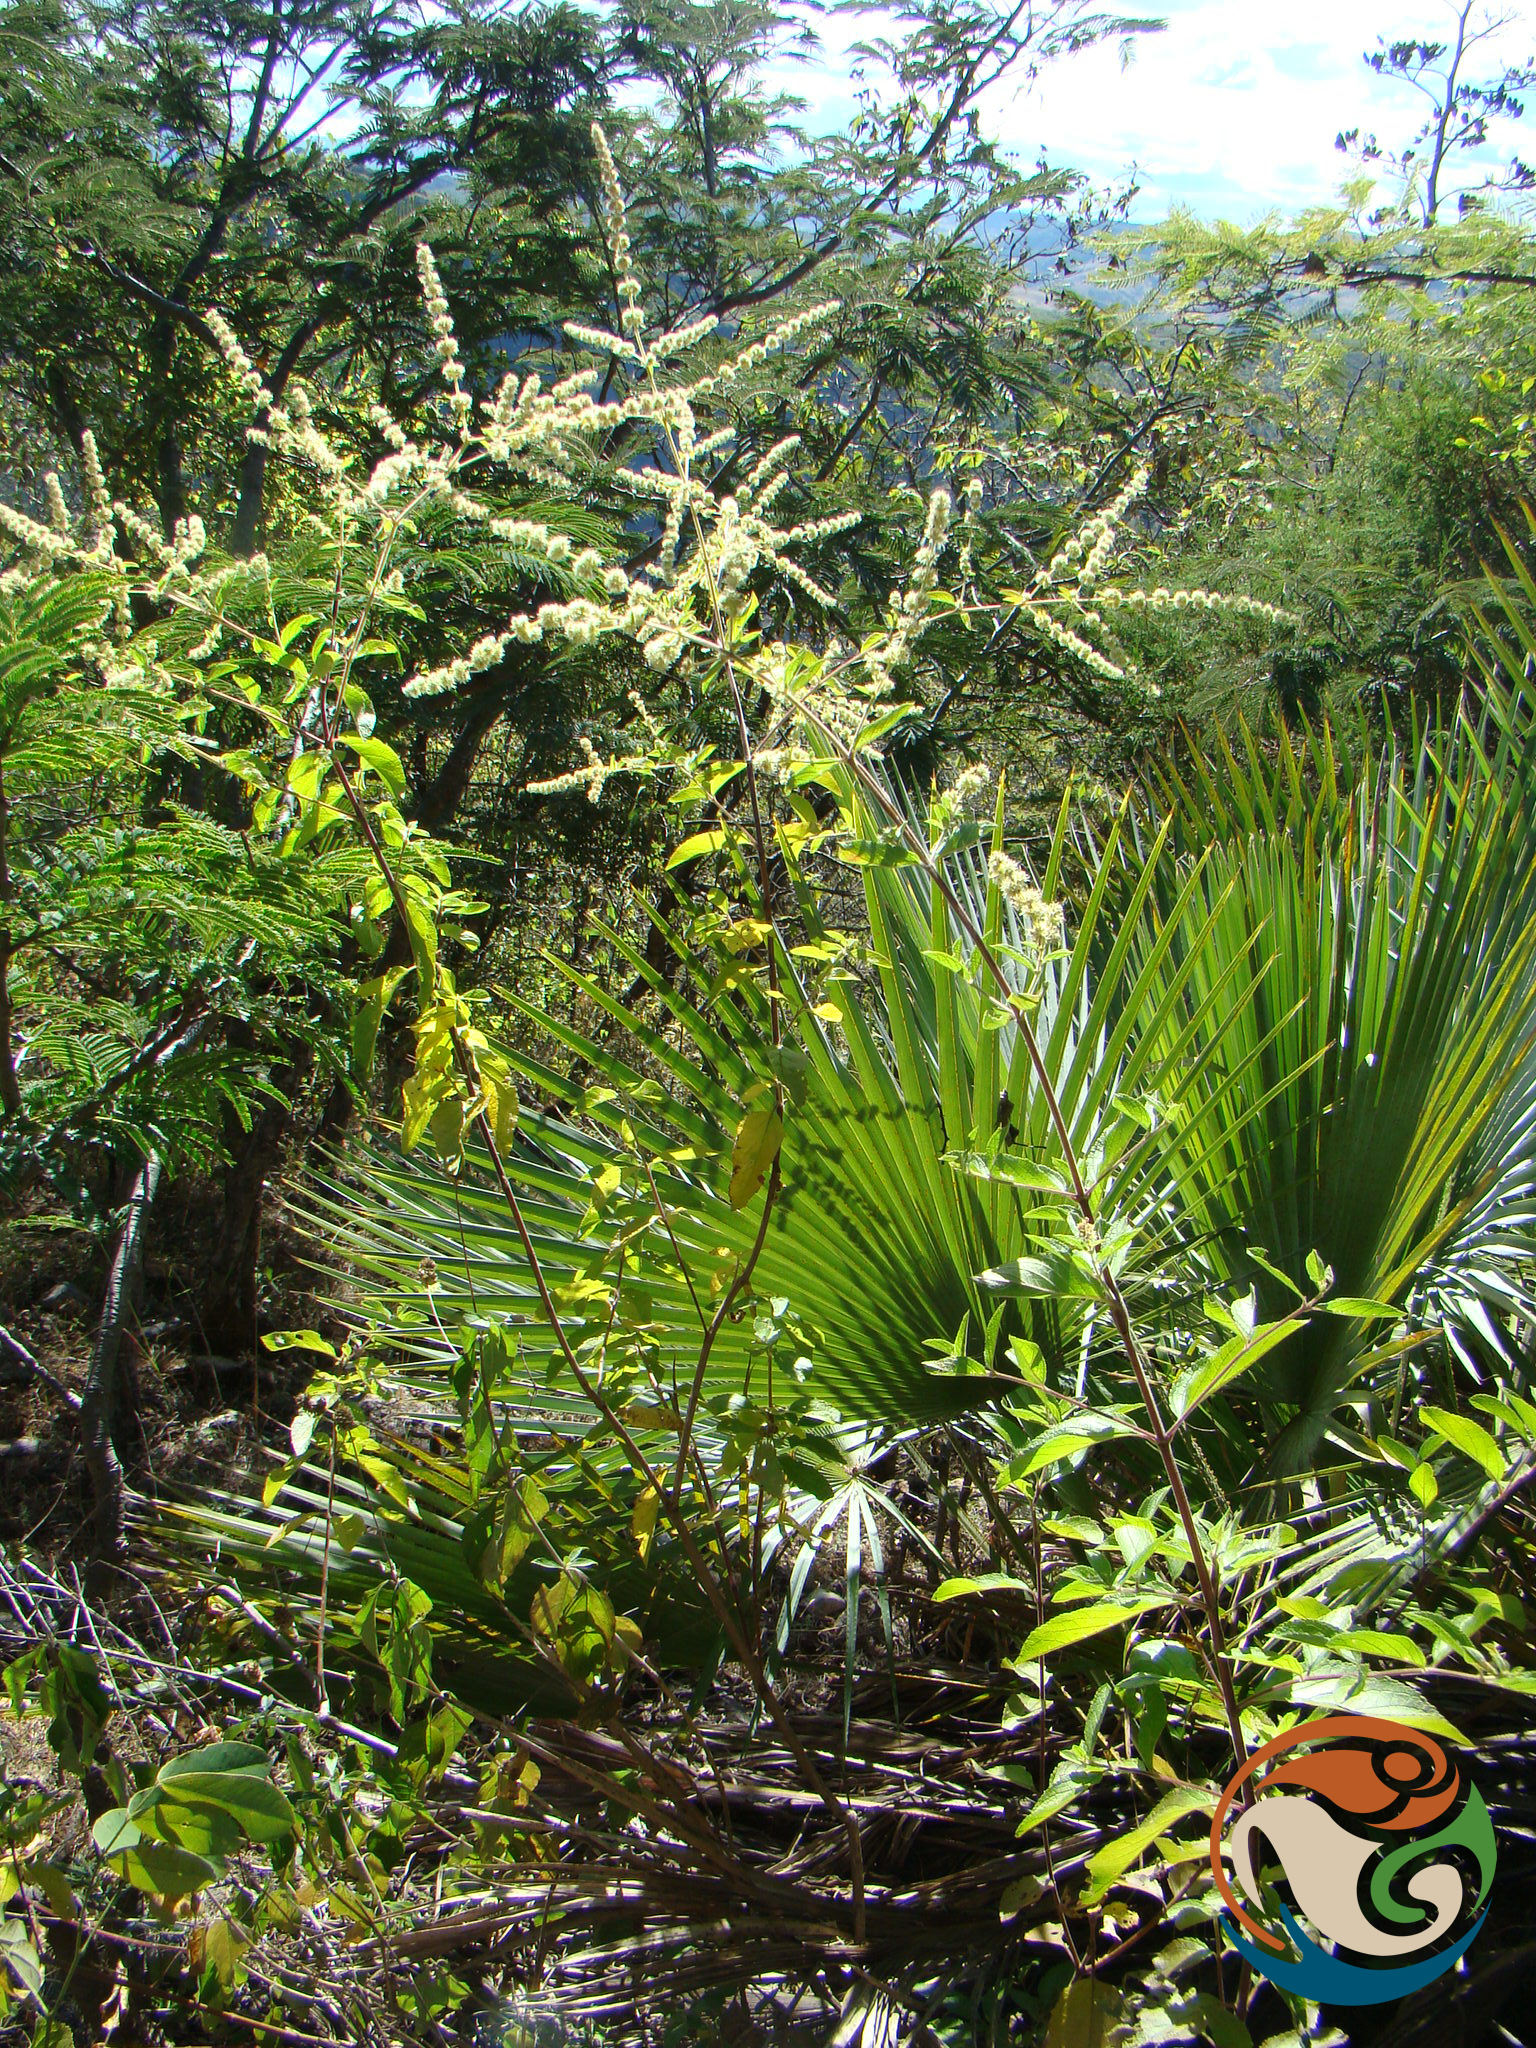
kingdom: Plantae
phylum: Tracheophyta
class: Magnoliopsida
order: Lamiales
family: Lamiaceae
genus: Asterohyptis
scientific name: Asterohyptis stellulata
